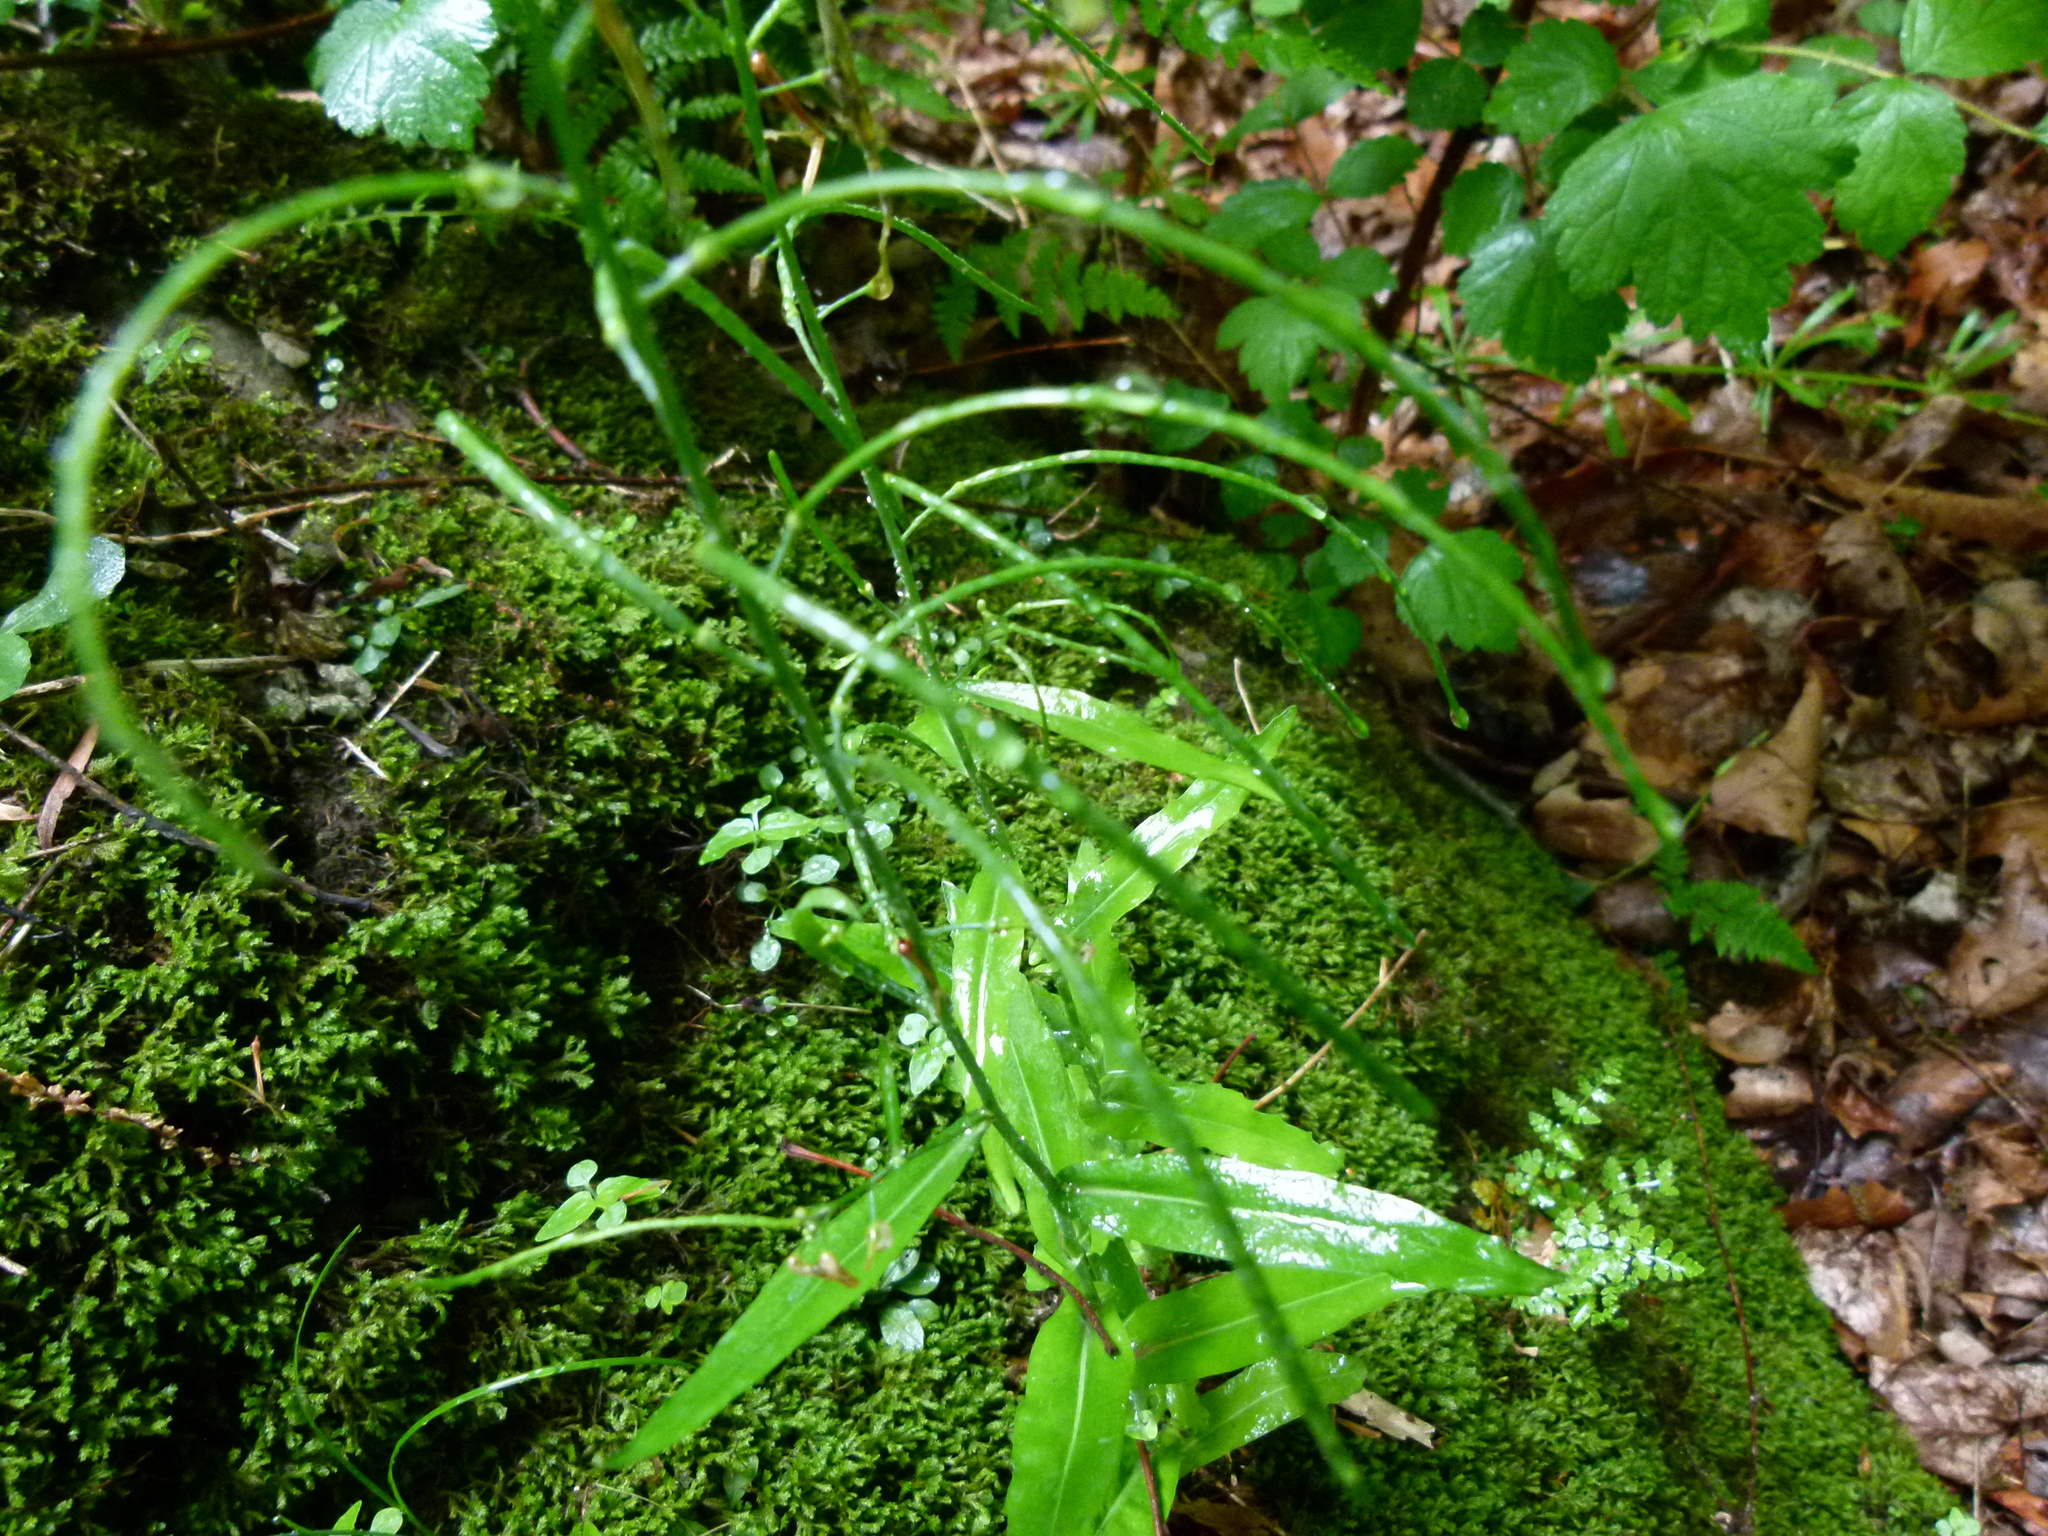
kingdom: Plantae
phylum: Tracheophyta
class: Magnoliopsida
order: Brassicales
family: Brassicaceae
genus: Borodinia
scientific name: Borodinia laevigata
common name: Smooth rockcress
